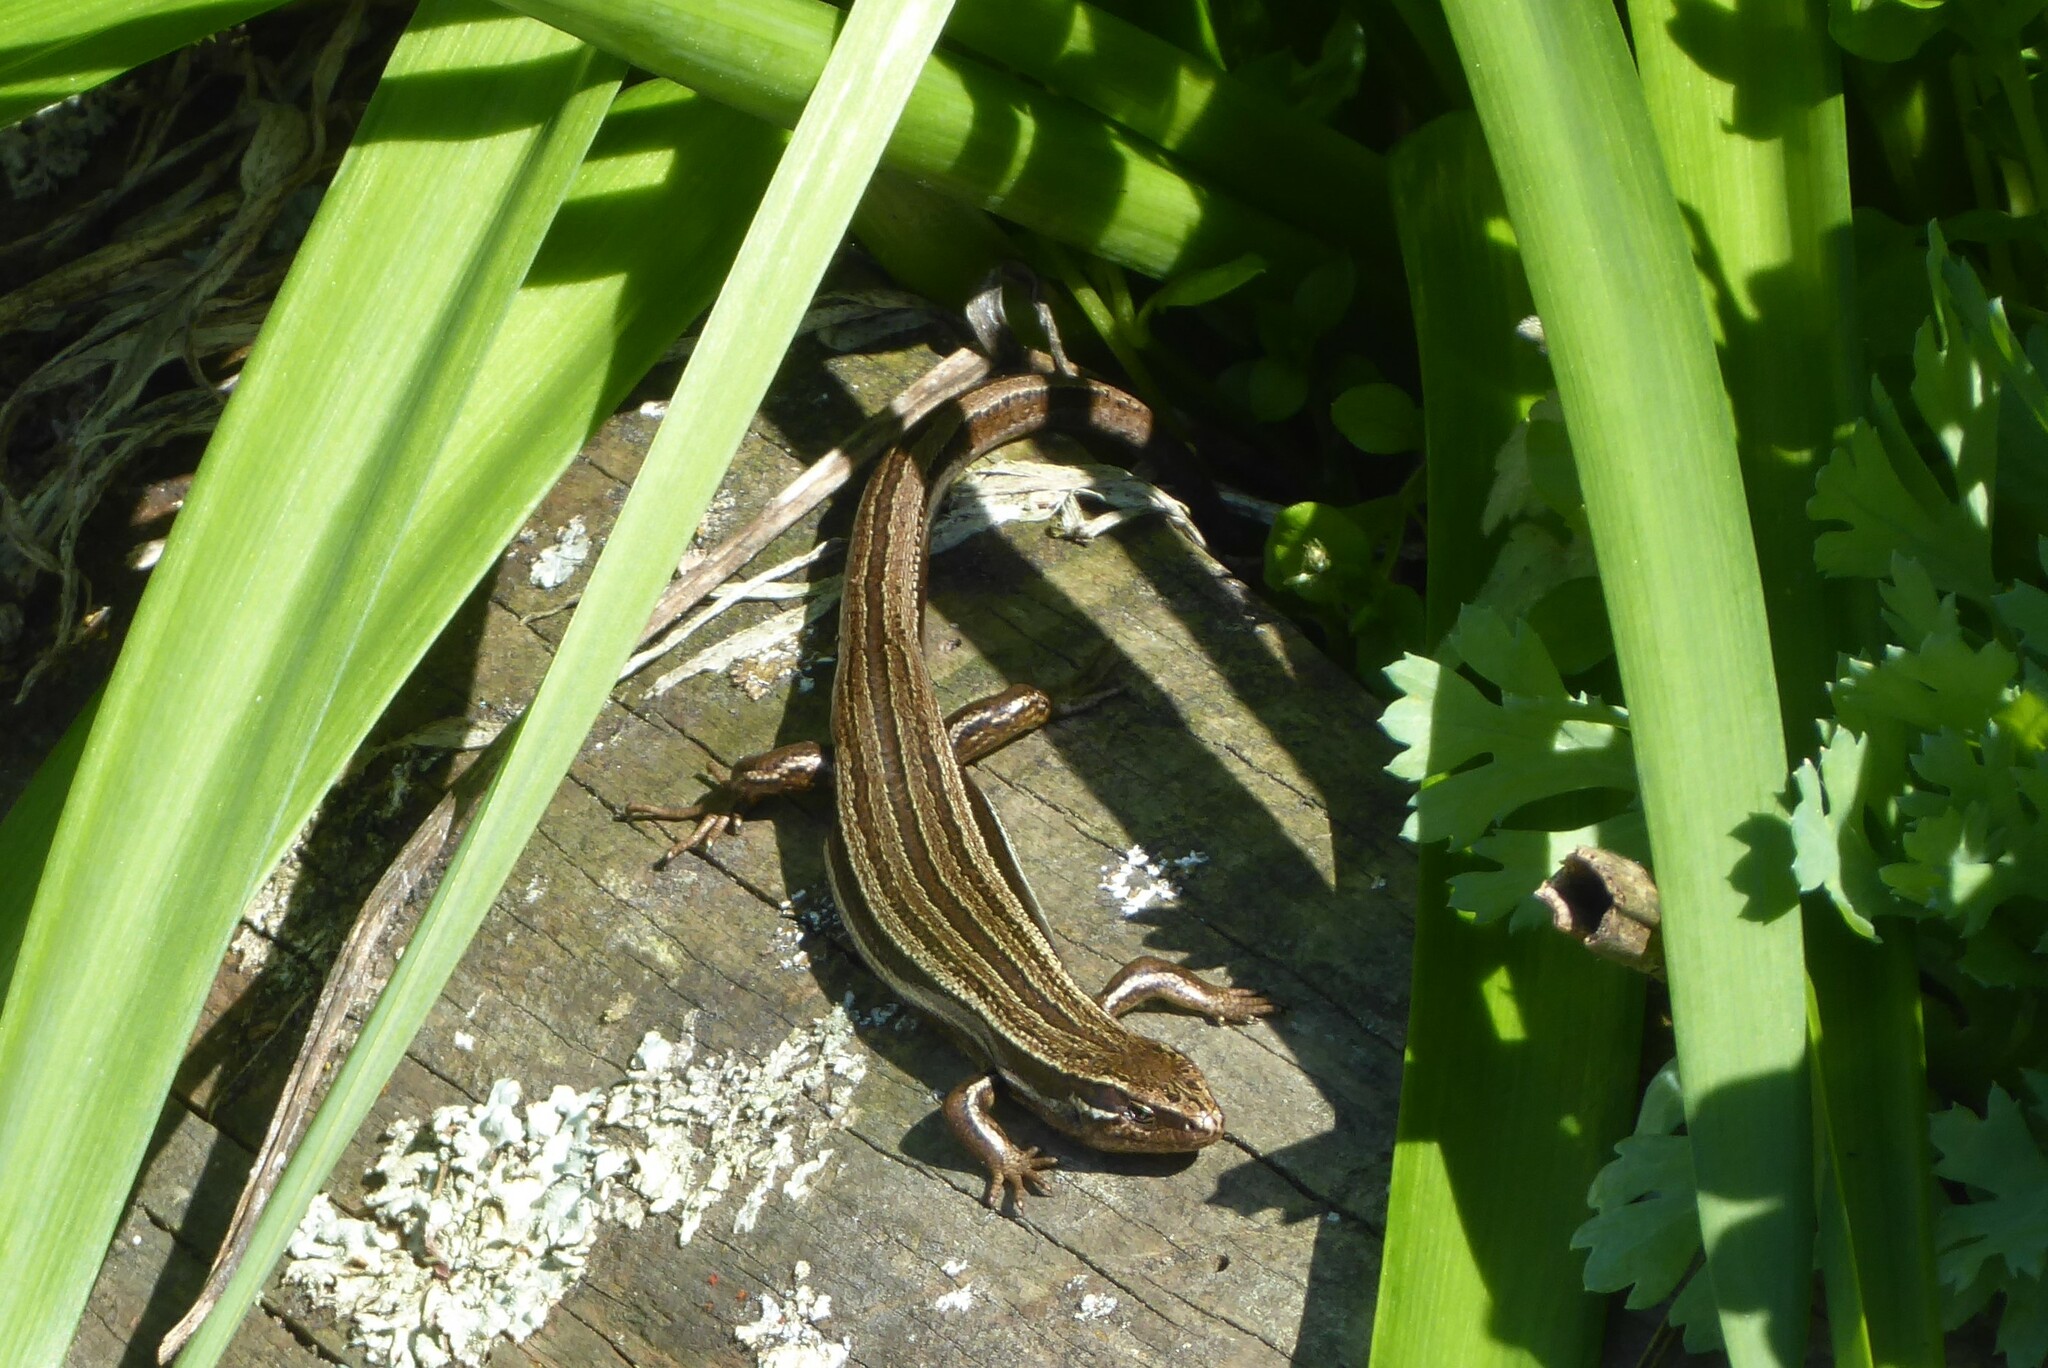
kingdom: Animalia
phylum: Chordata
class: Squamata
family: Scincidae
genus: Oligosoma
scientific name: Oligosoma polychroma
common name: Common new zealand skink
